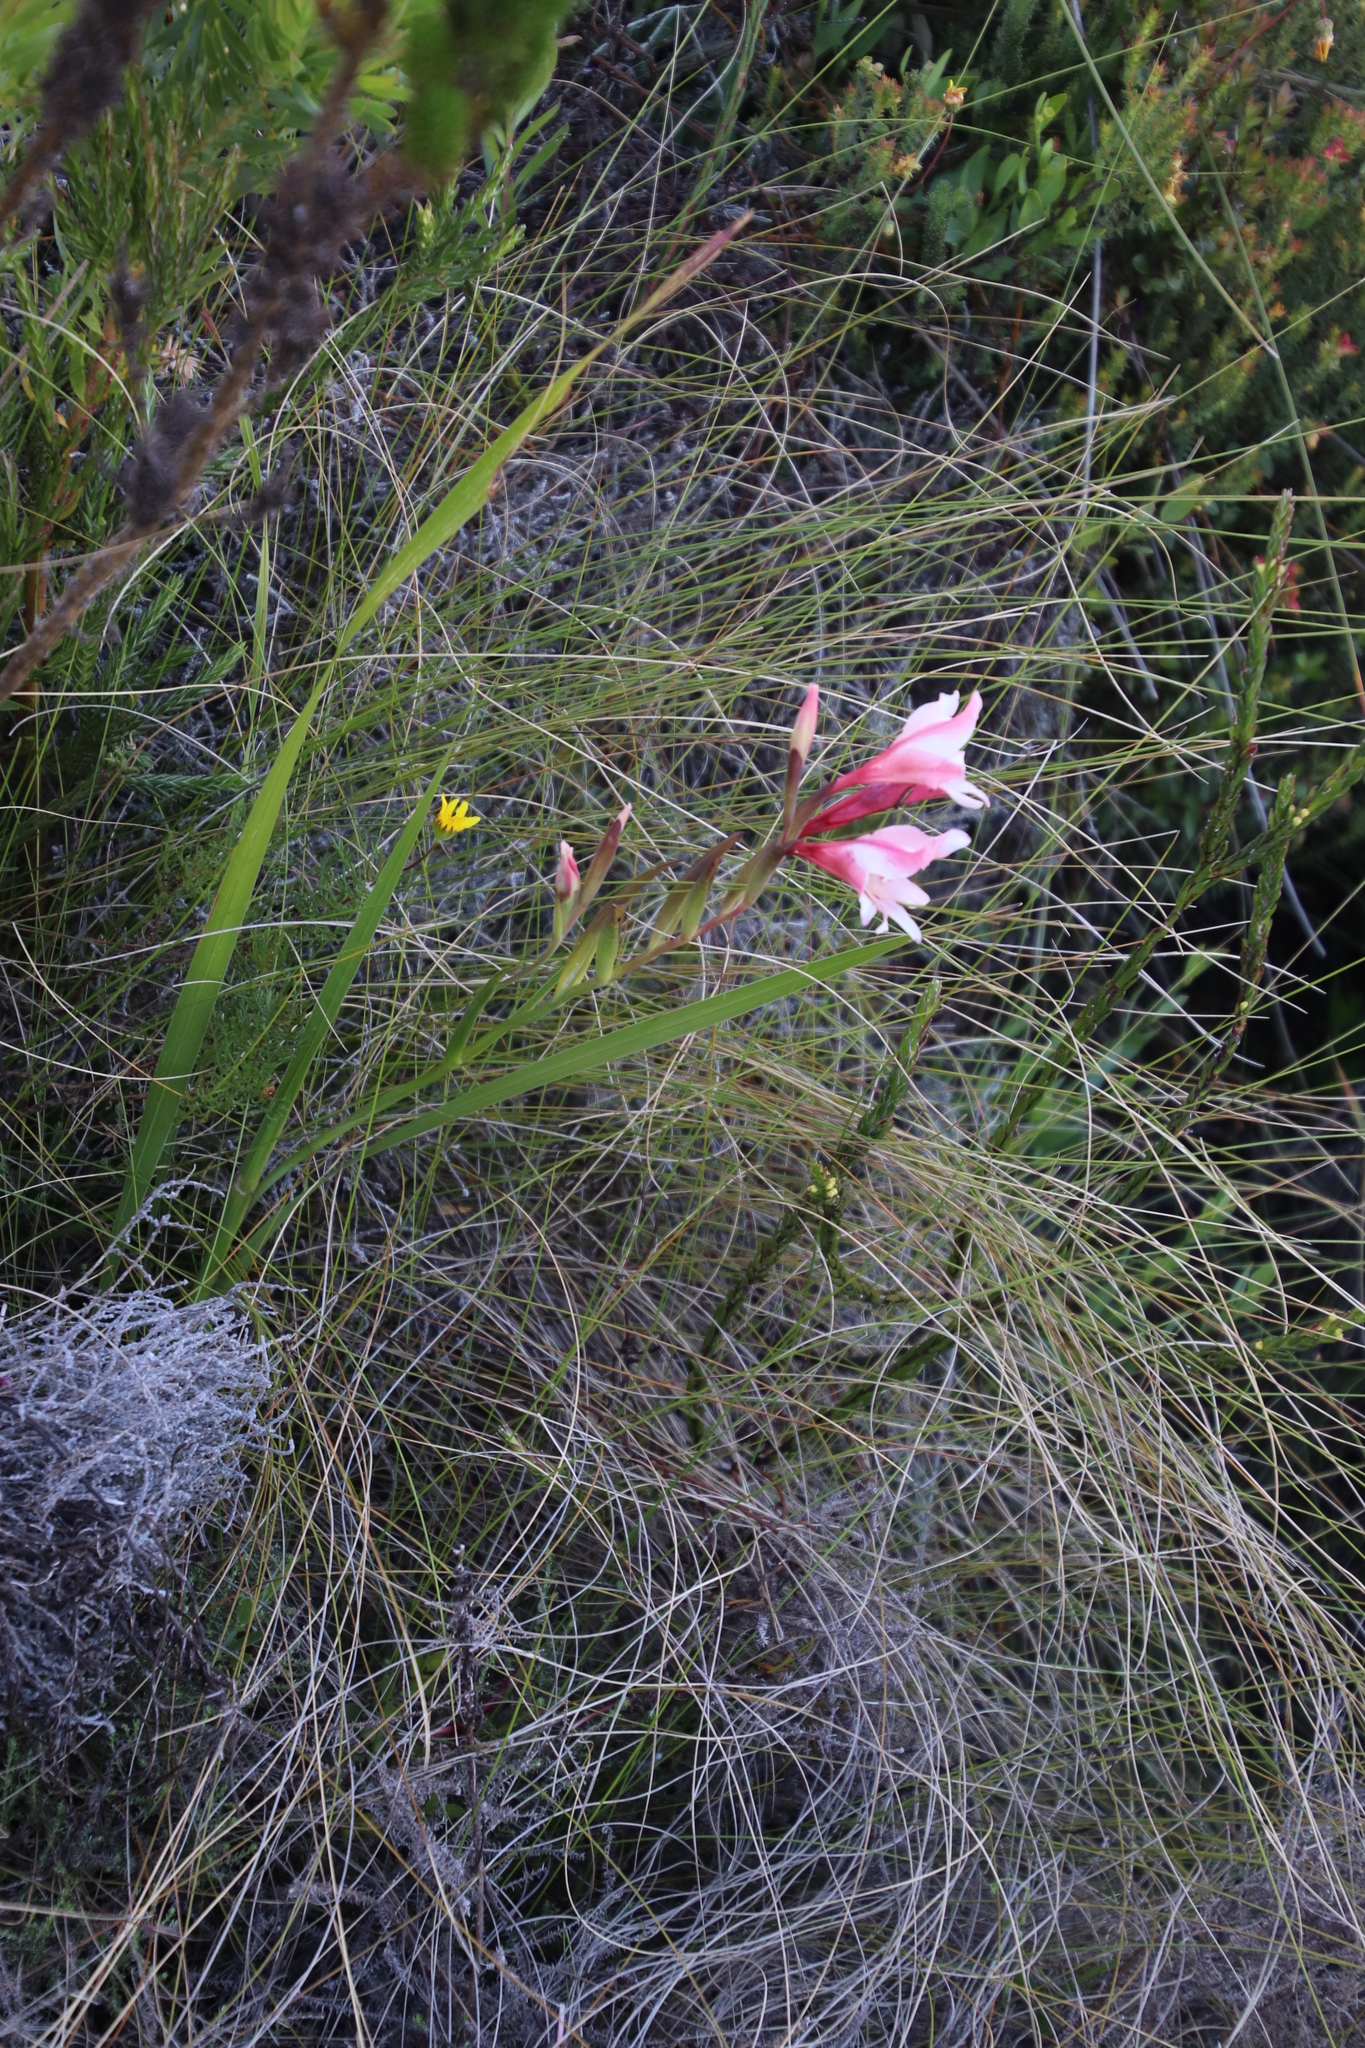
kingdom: Plantae
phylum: Tracheophyta
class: Liliopsida
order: Asparagales
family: Iridaceae
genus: Gladiolus
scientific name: Gladiolus carneus
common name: Painted-lady
